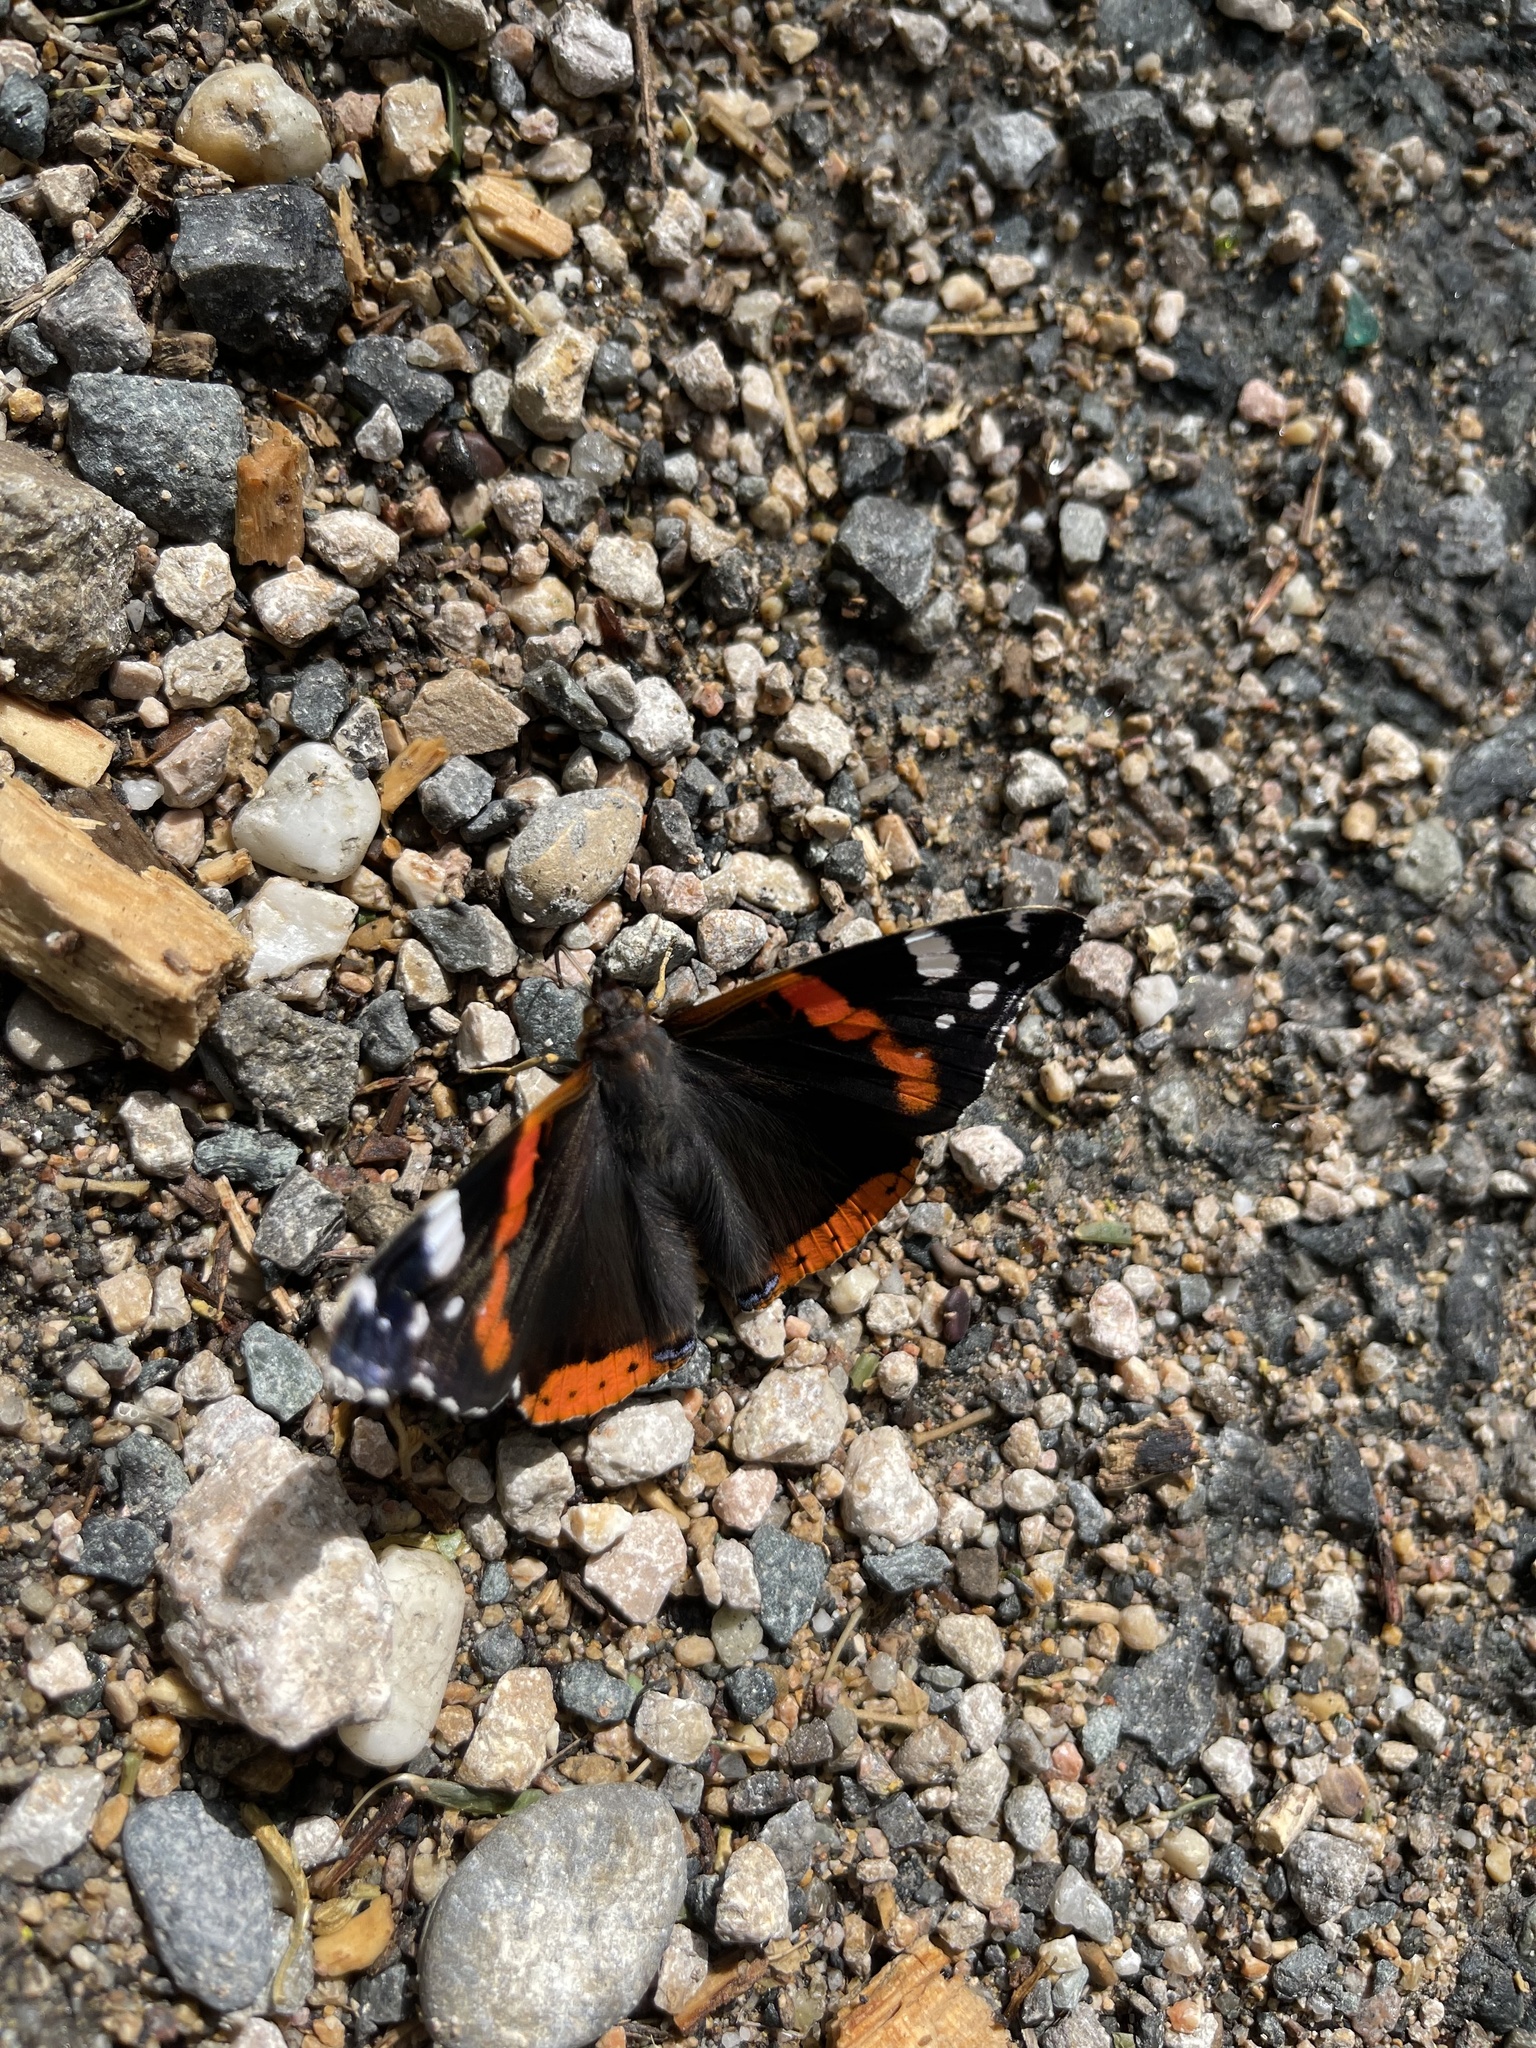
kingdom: Animalia
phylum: Arthropoda
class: Insecta
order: Lepidoptera
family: Nymphalidae
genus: Vanessa
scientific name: Vanessa atalanta
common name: Red admiral
